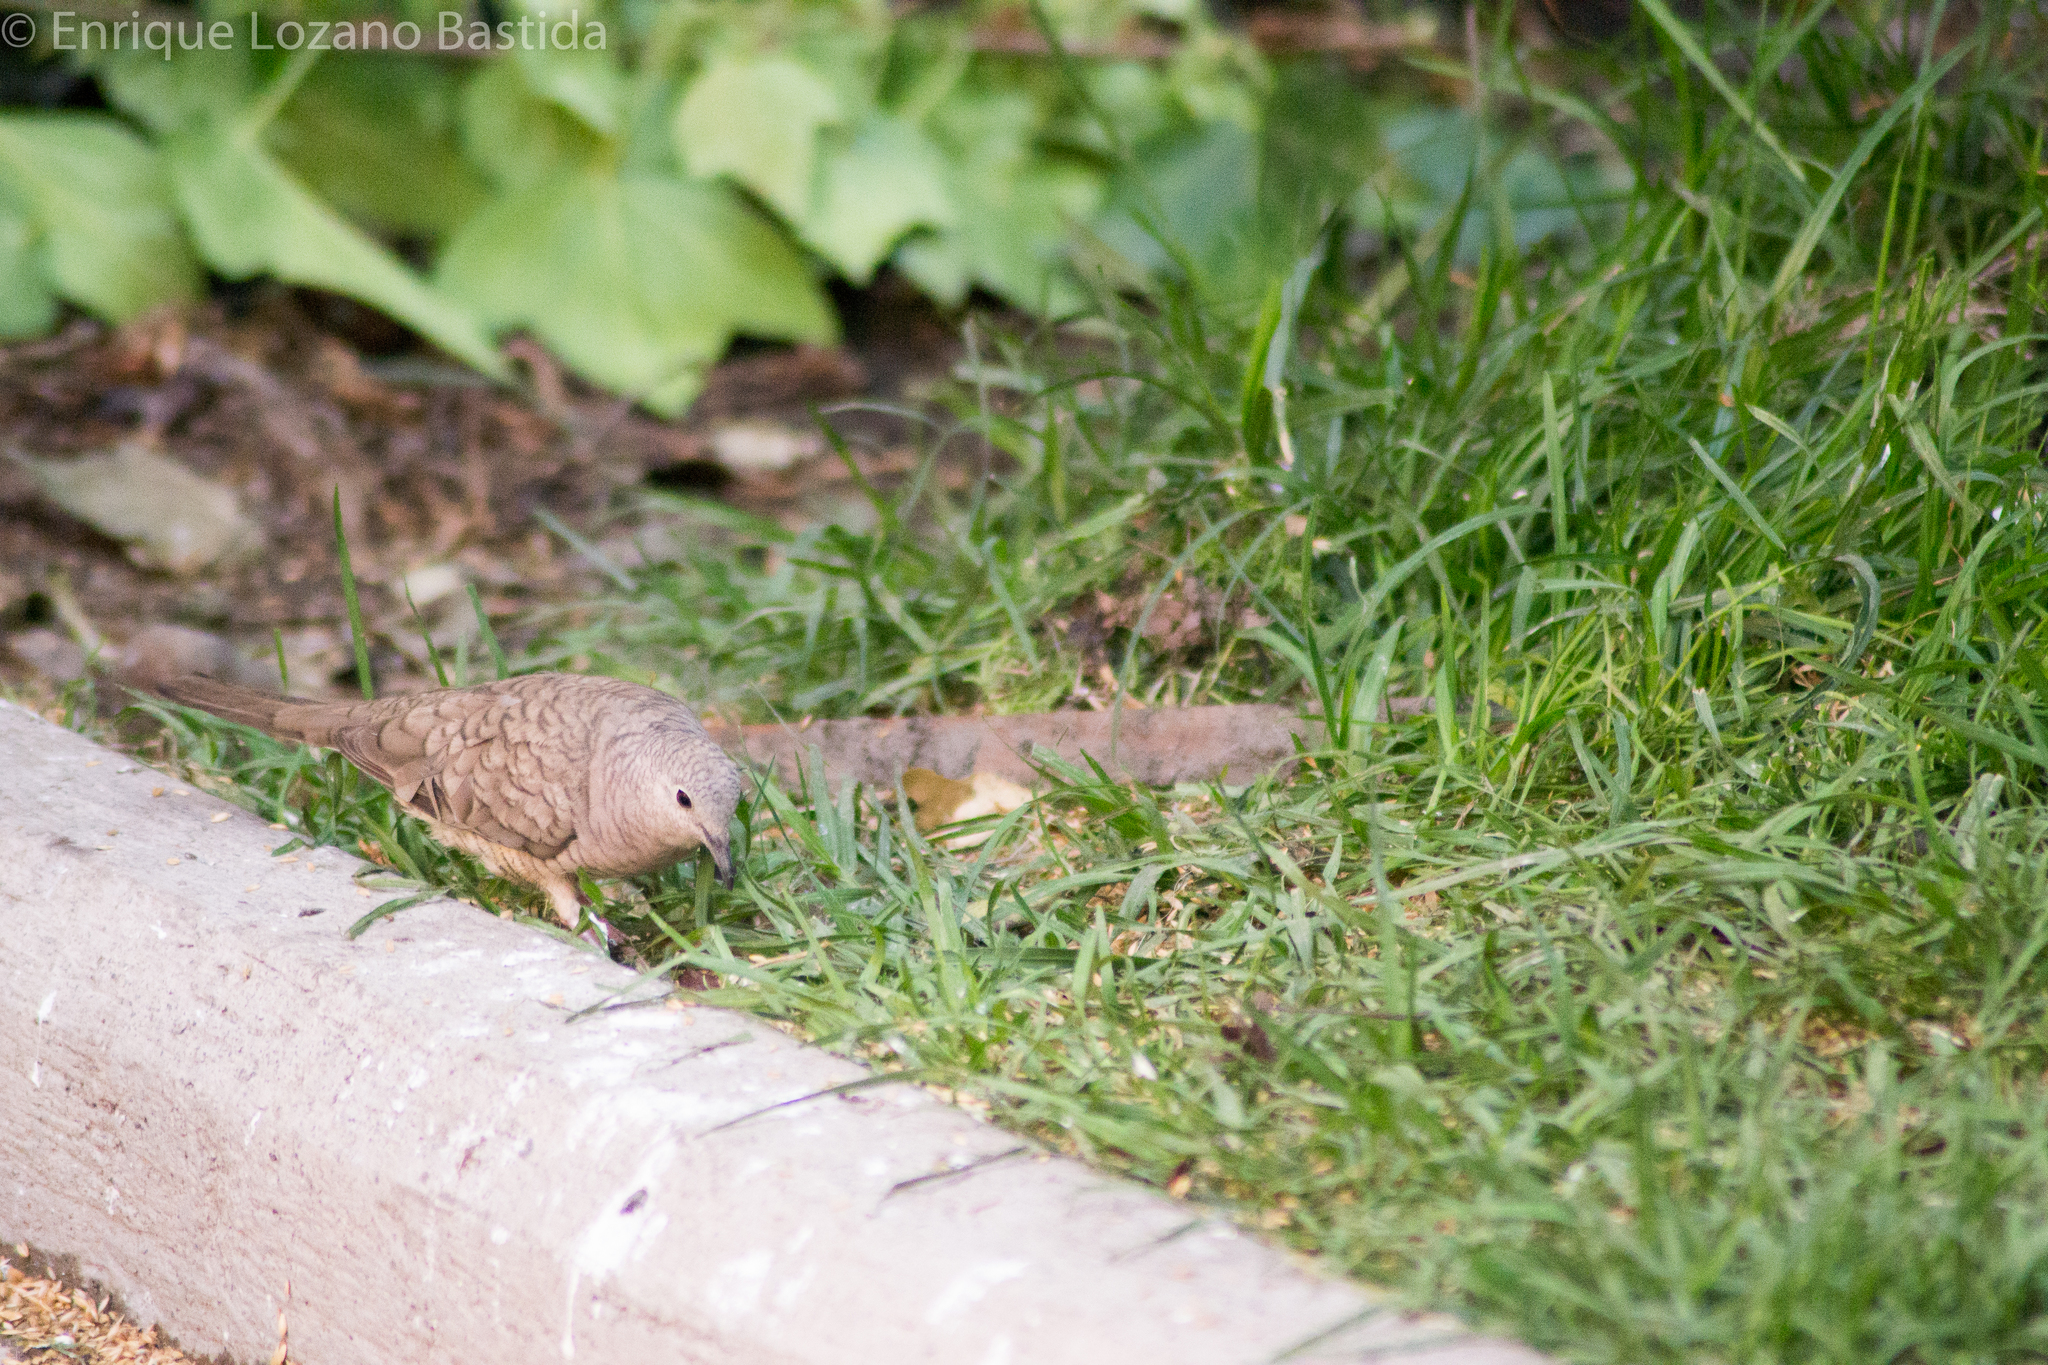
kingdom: Animalia
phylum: Chordata
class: Aves
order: Columbiformes
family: Columbidae
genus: Columbina
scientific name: Columbina inca
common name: Inca dove
